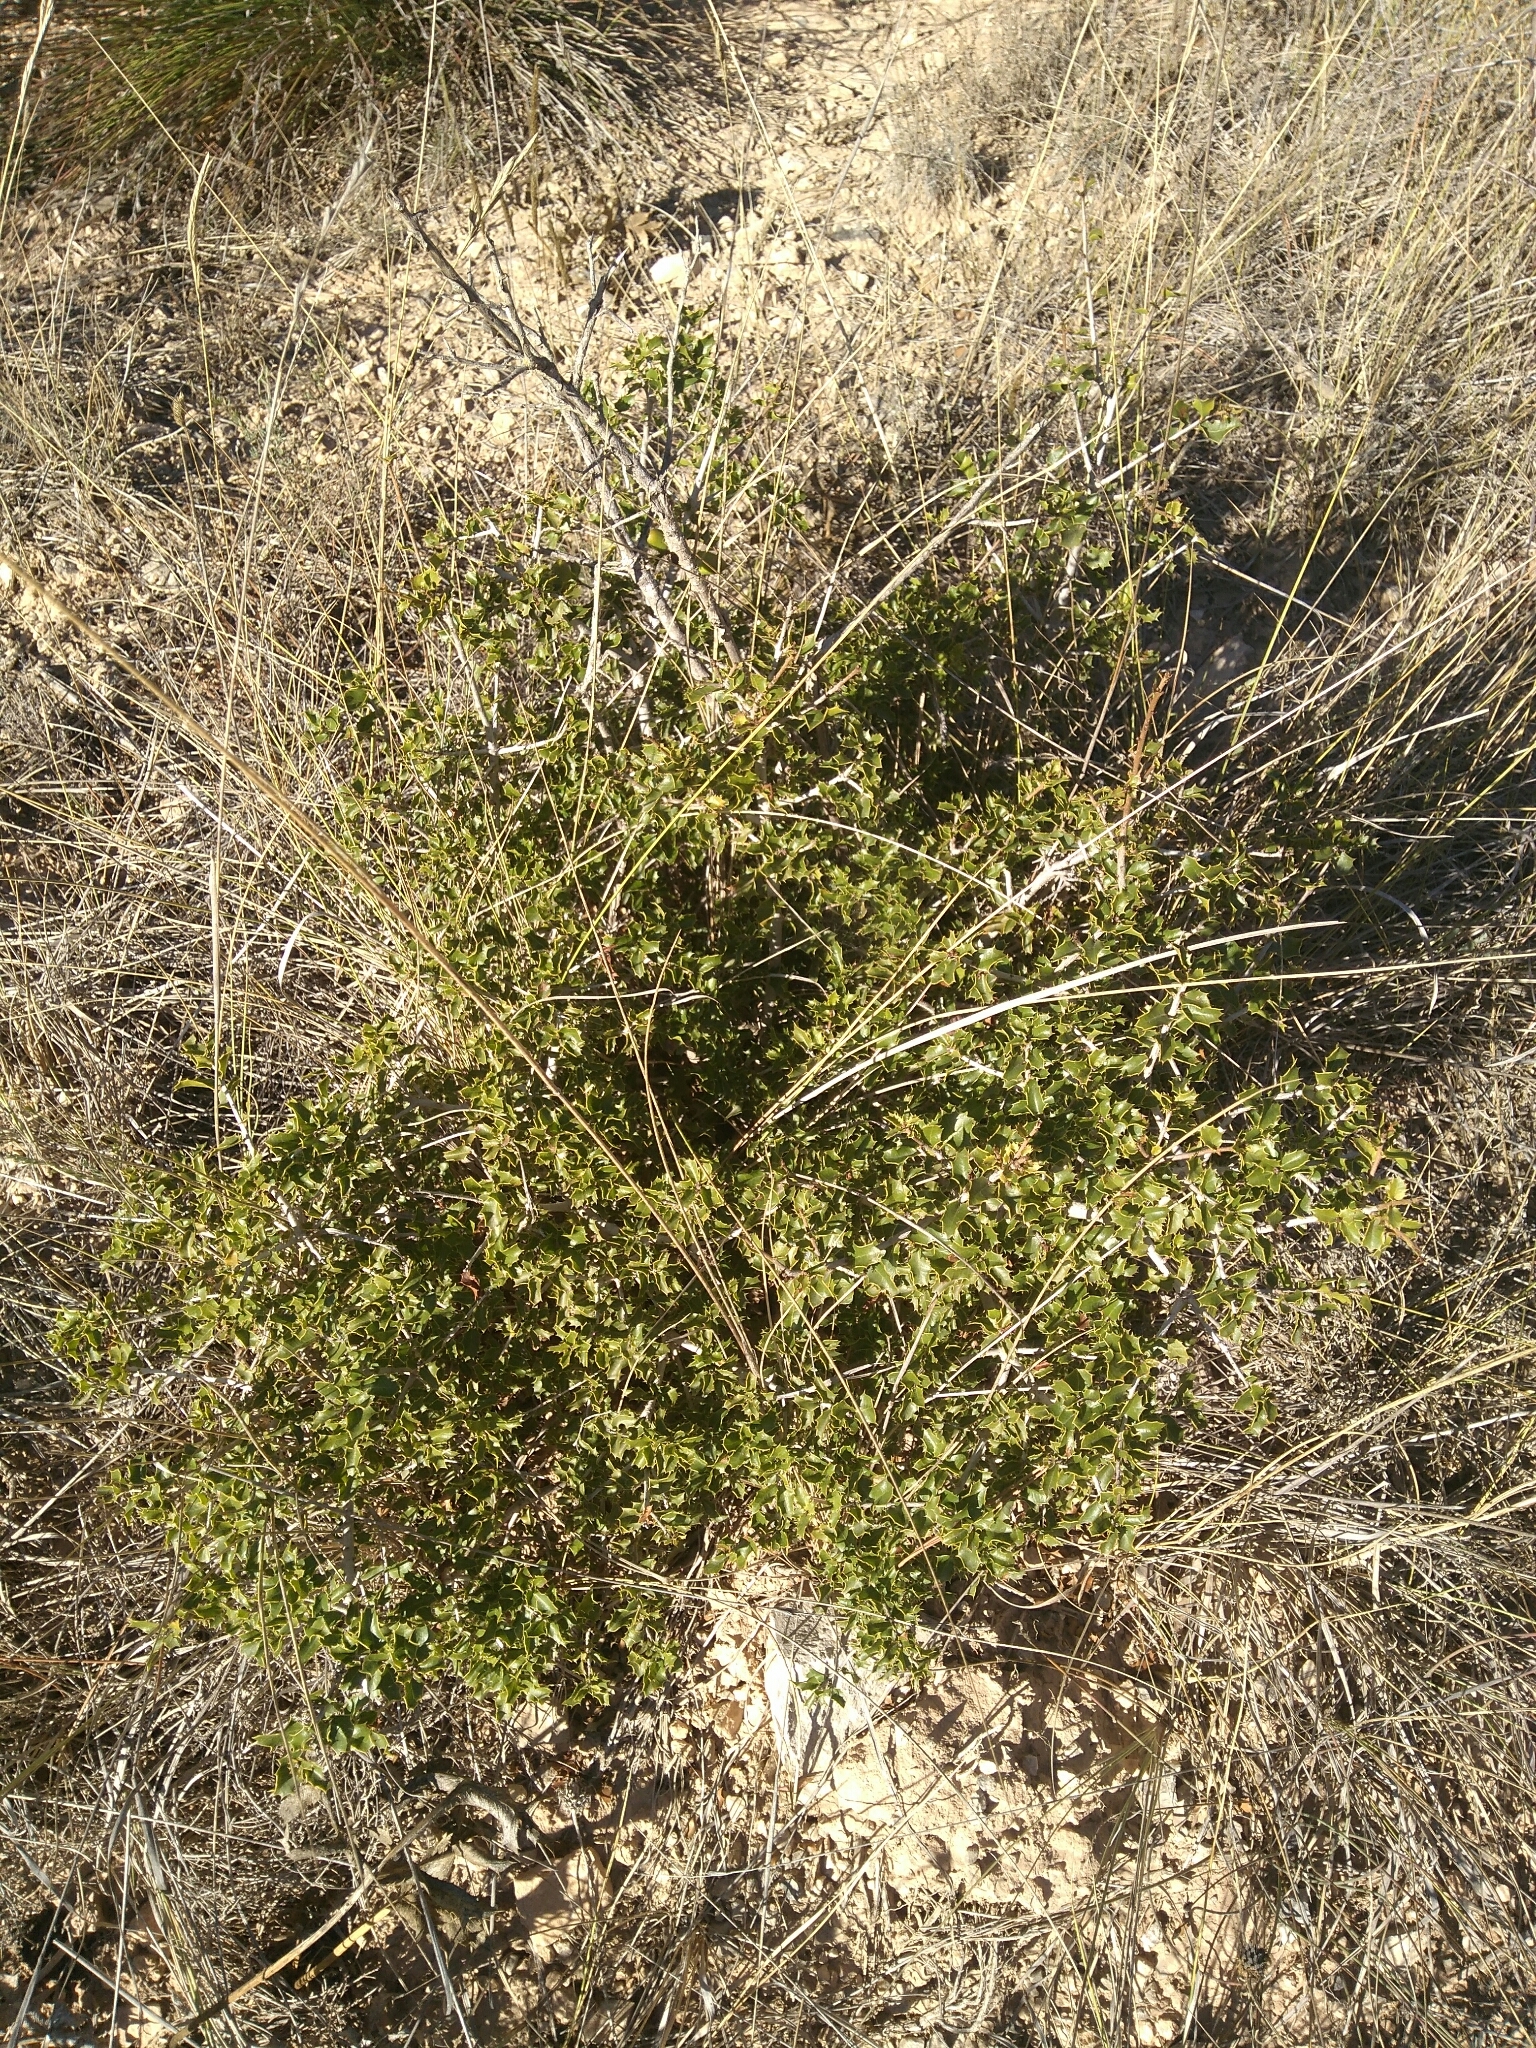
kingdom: Plantae
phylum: Tracheophyta
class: Magnoliopsida
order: Fagales
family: Fagaceae
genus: Quercus
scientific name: Quercus coccifera
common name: Kermes oak
